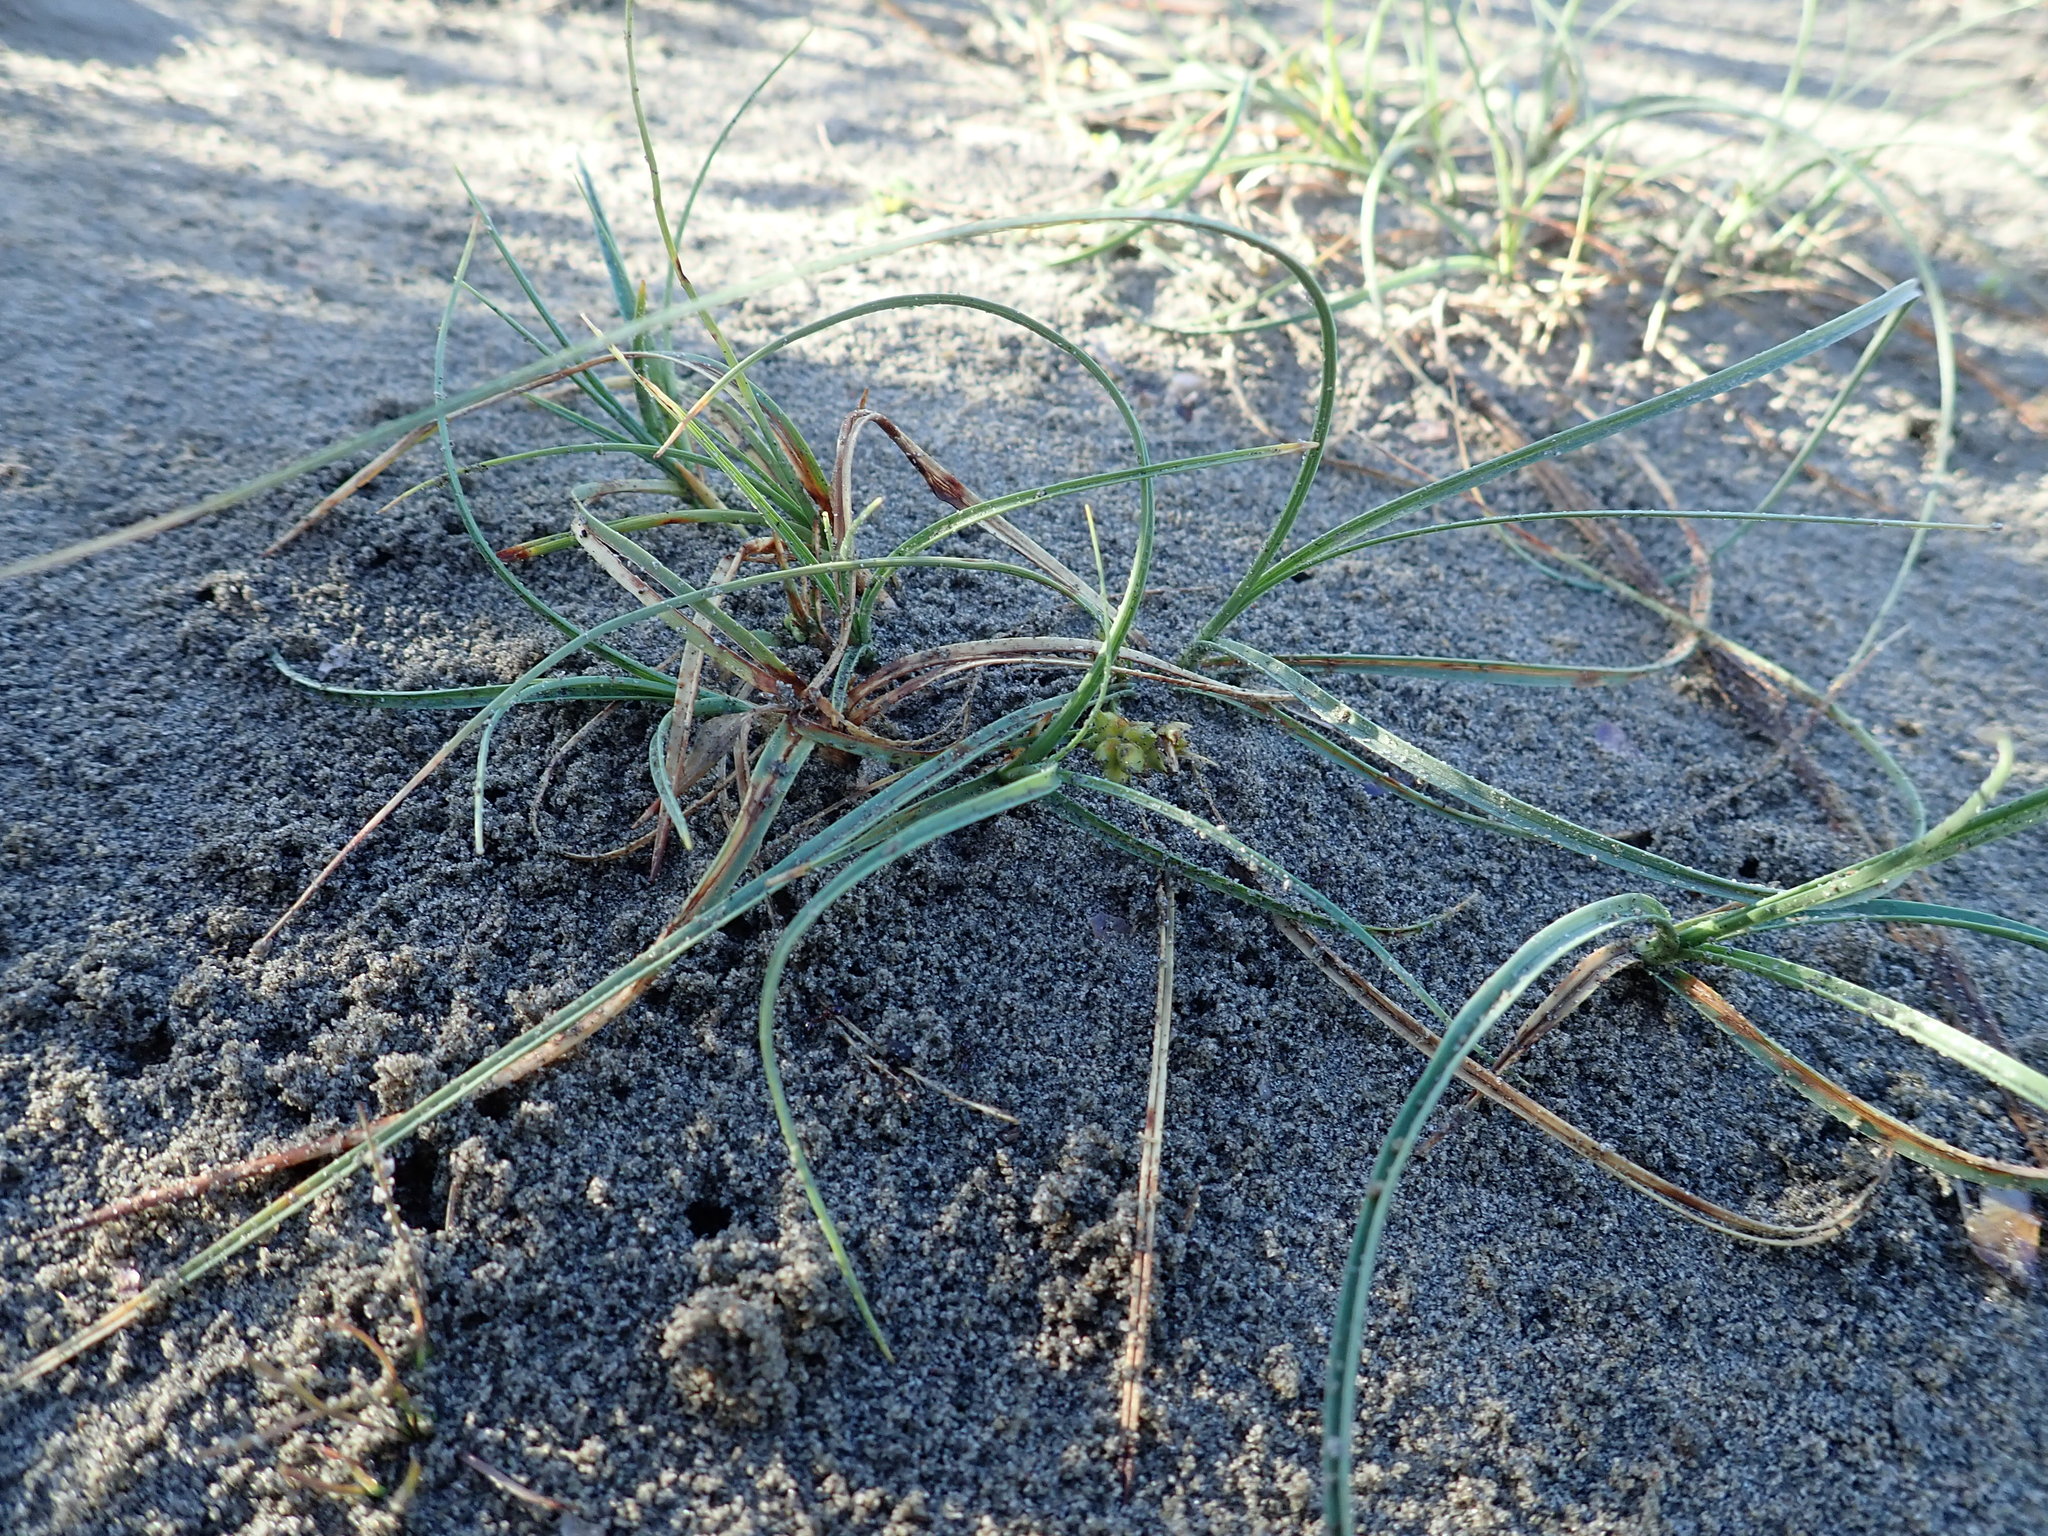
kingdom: Plantae
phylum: Tracheophyta
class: Liliopsida
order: Poales
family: Cyperaceae
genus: Carex
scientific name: Carex pumila
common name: Dwarf sedge
